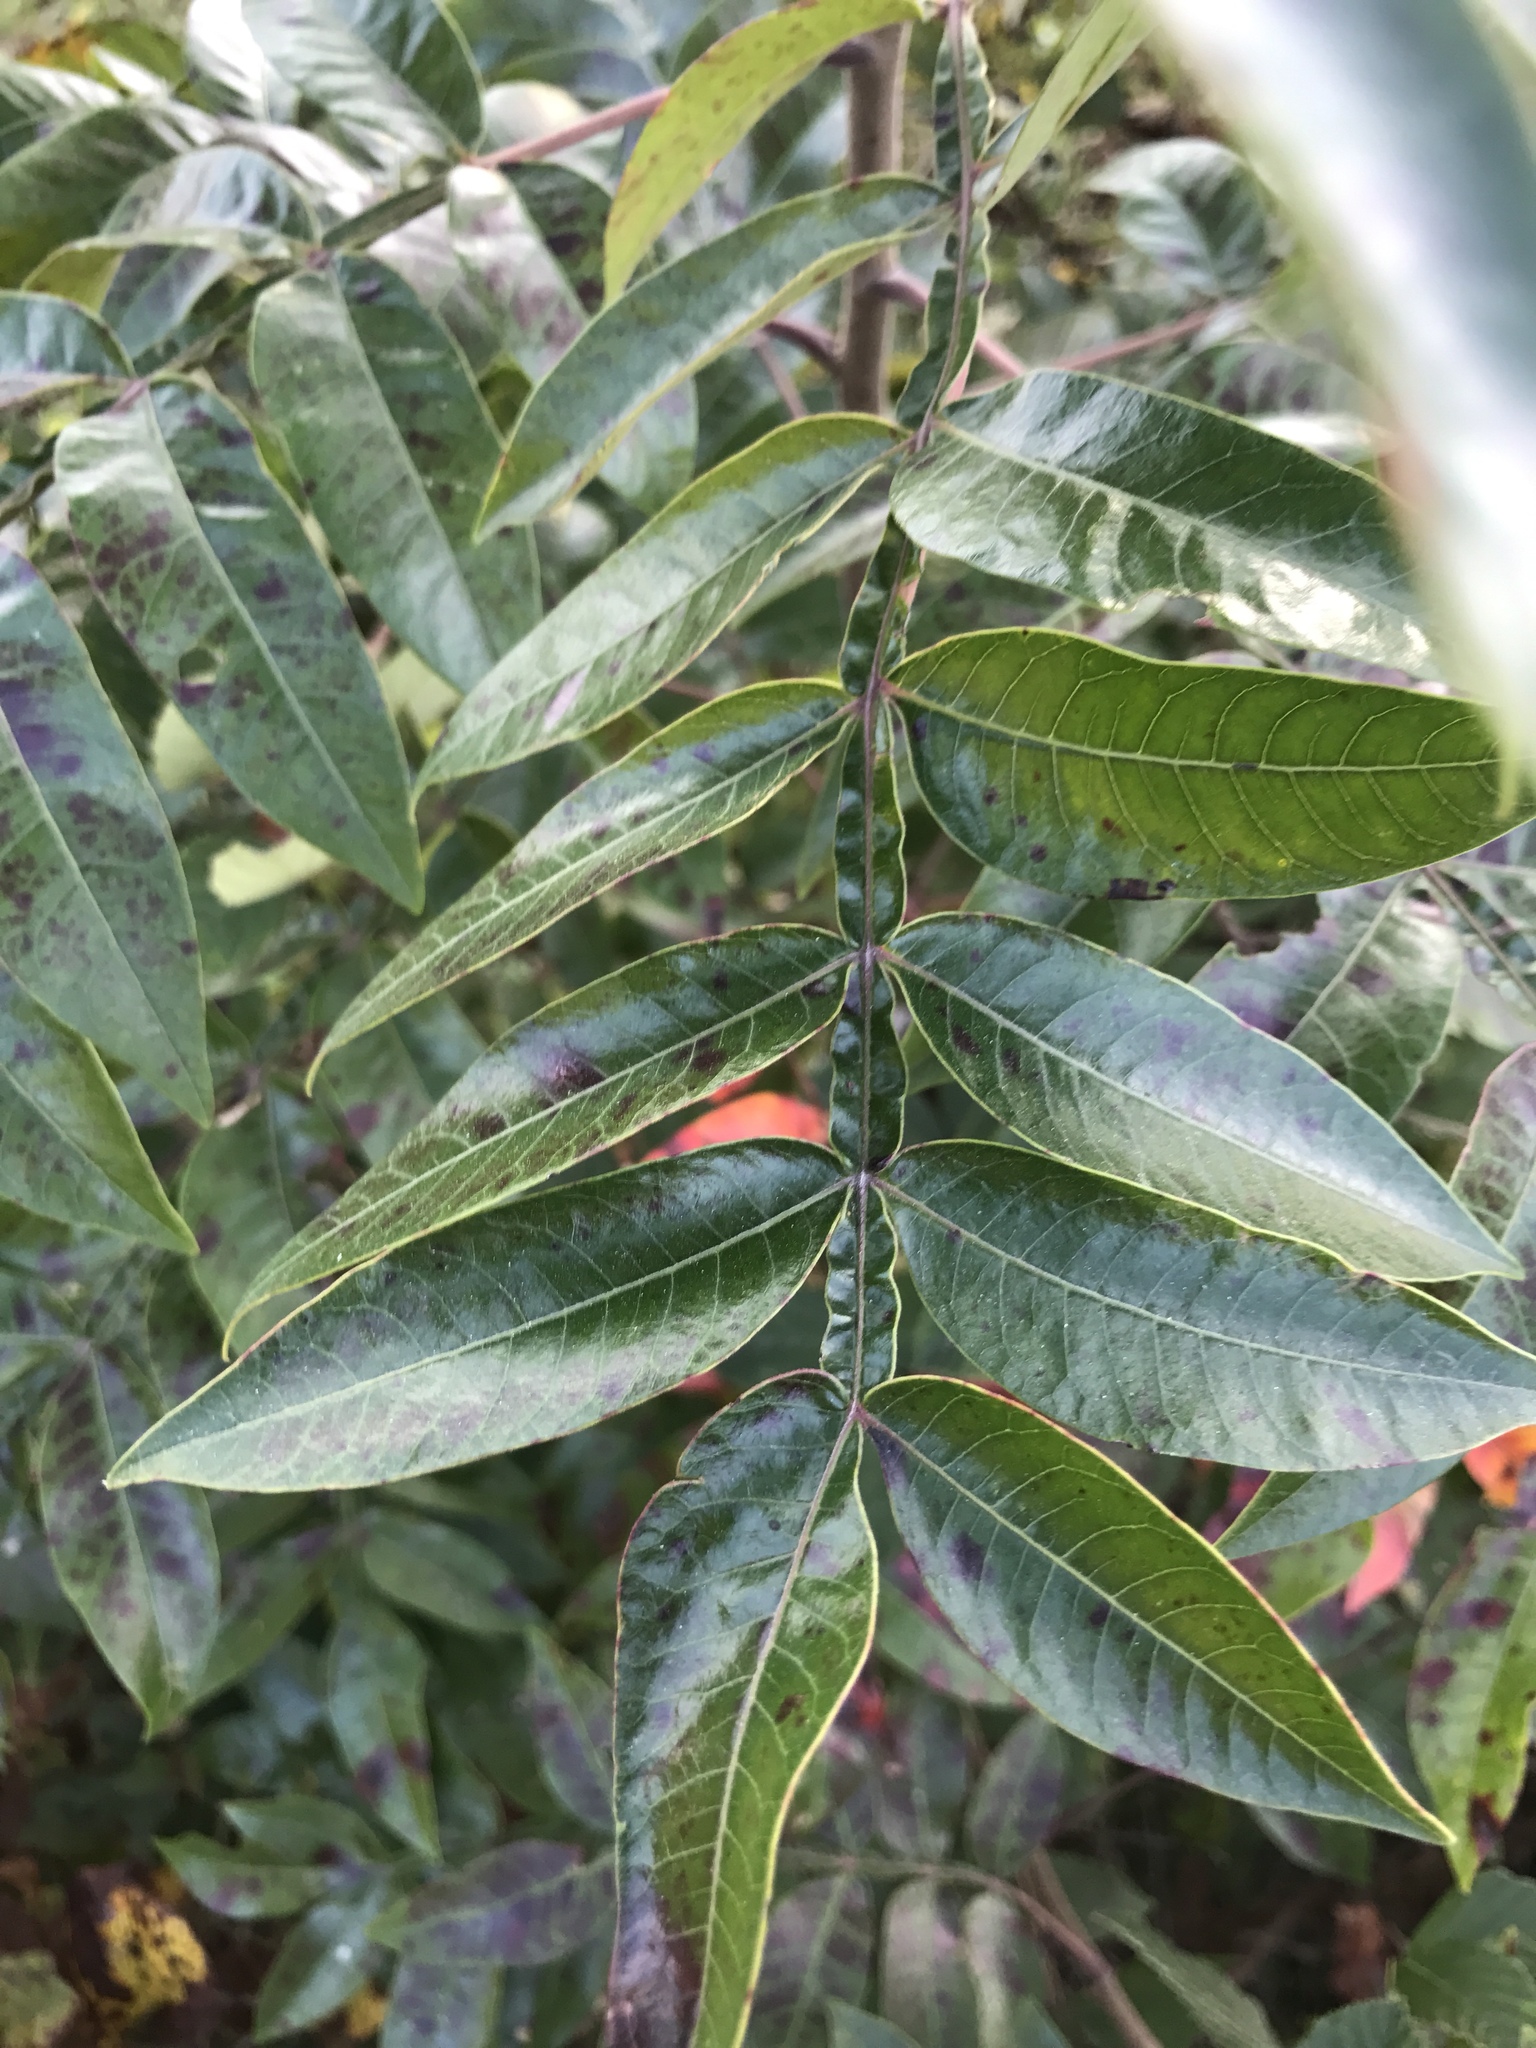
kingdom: Plantae
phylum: Tracheophyta
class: Magnoliopsida
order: Sapindales
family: Anacardiaceae
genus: Rhus
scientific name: Rhus copallina
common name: Shining sumac
